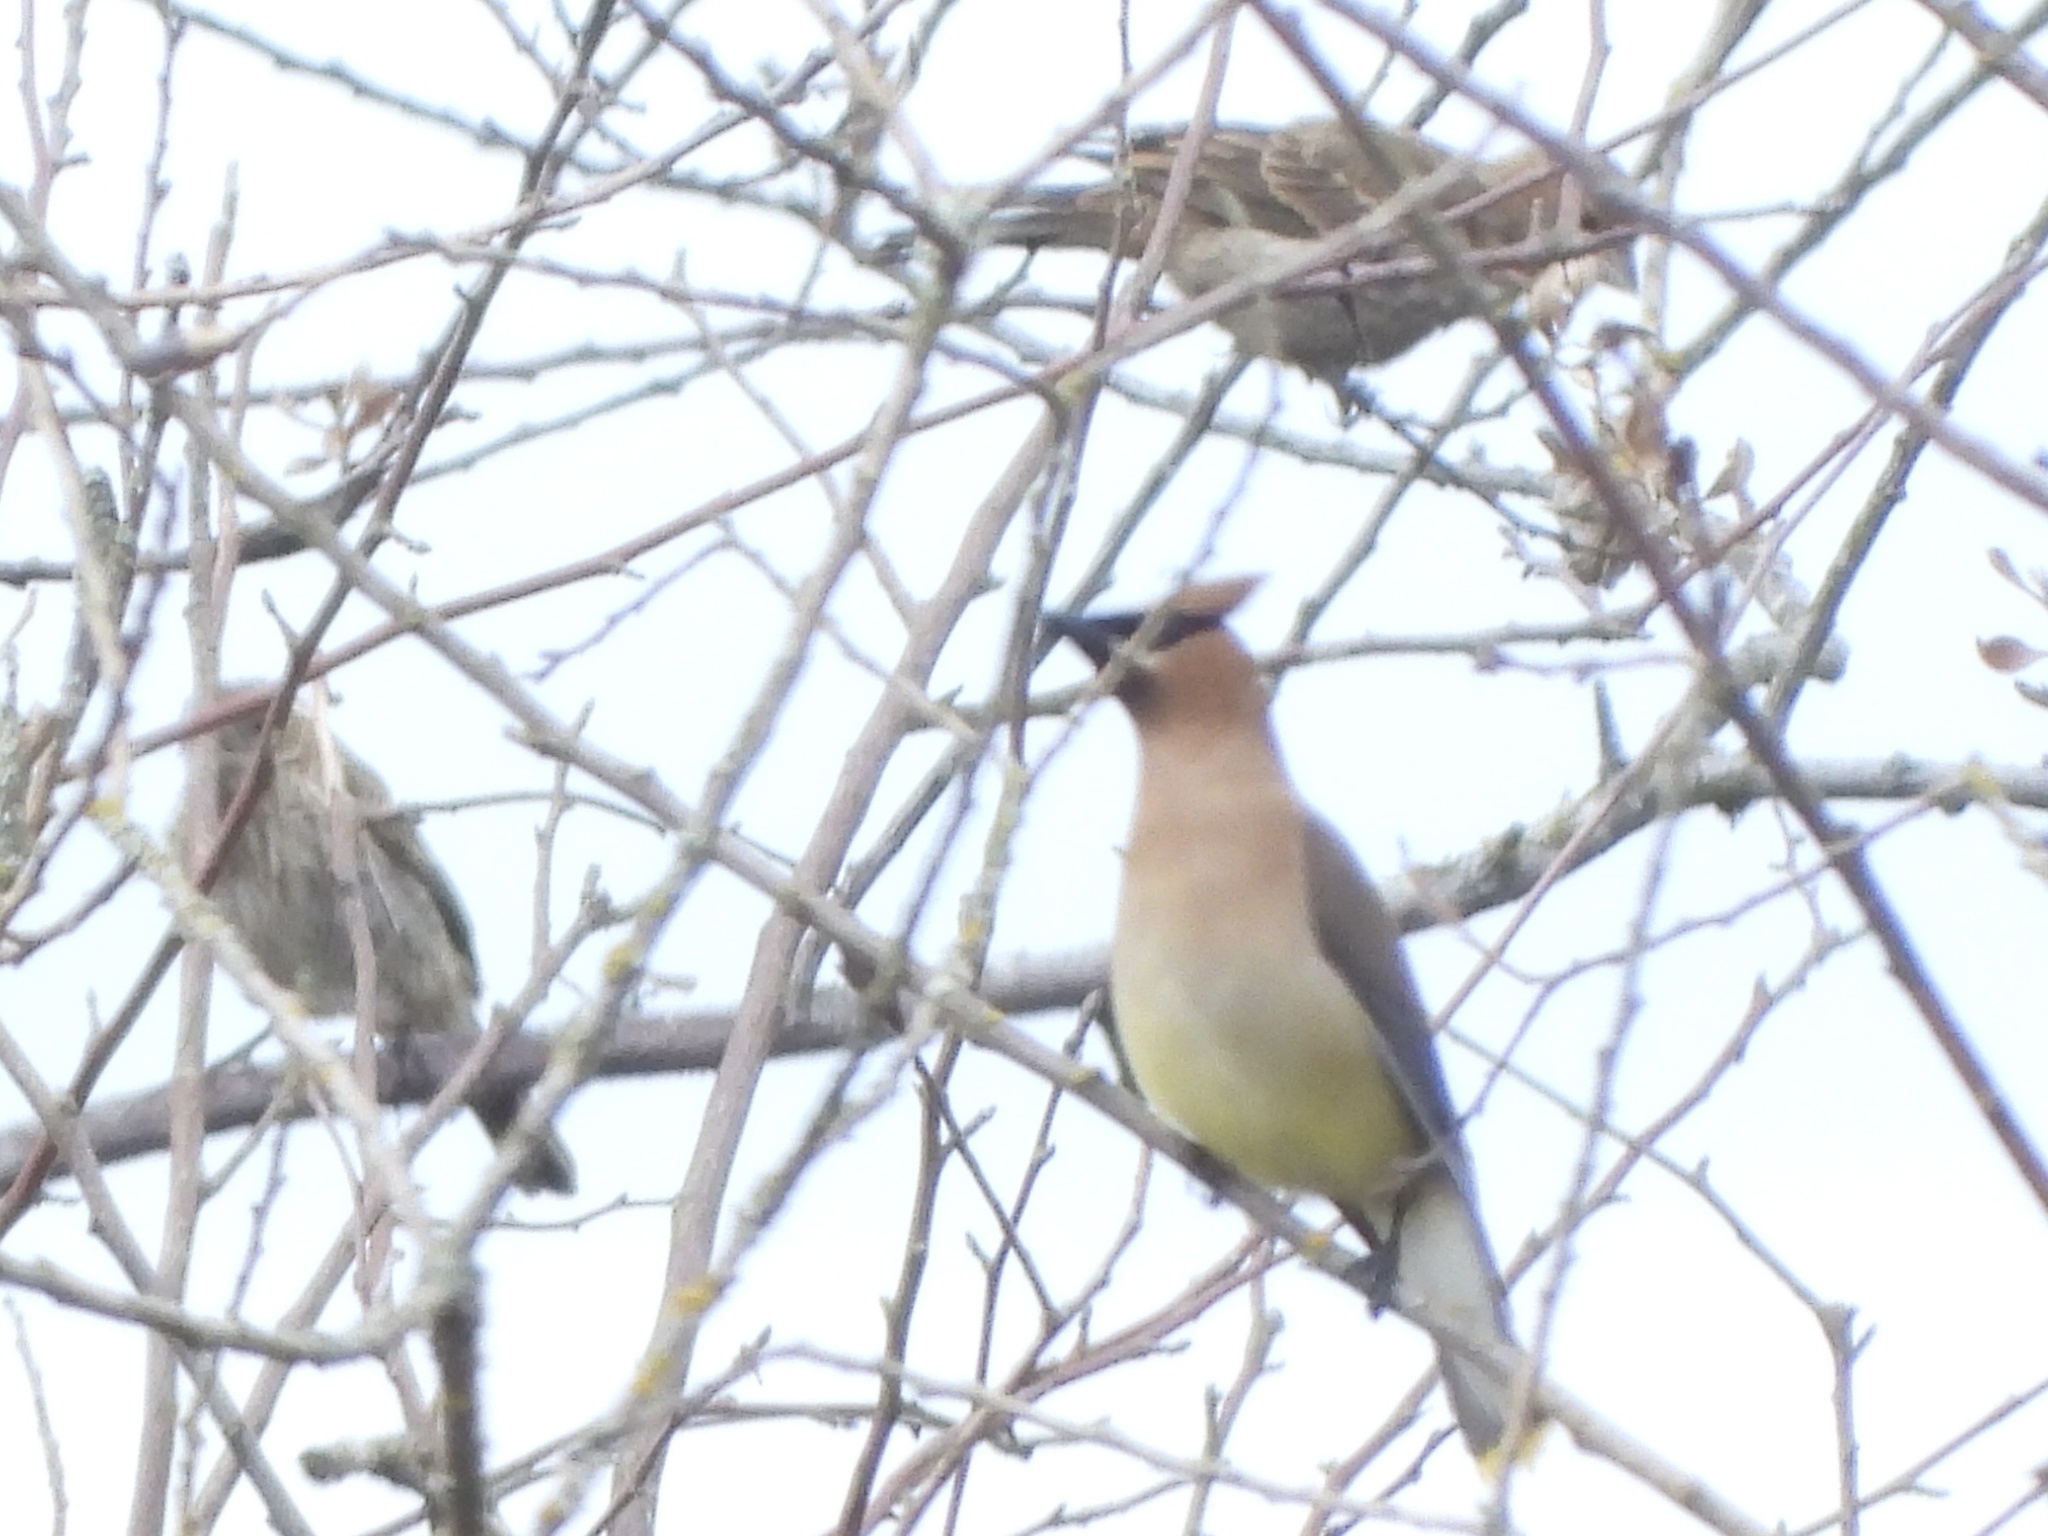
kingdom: Animalia
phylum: Chordata
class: Aves
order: Passeriformes
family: Bombycillidae
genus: Bombycilla
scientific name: Bombycilla cedrorum
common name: Cedar waxwing
